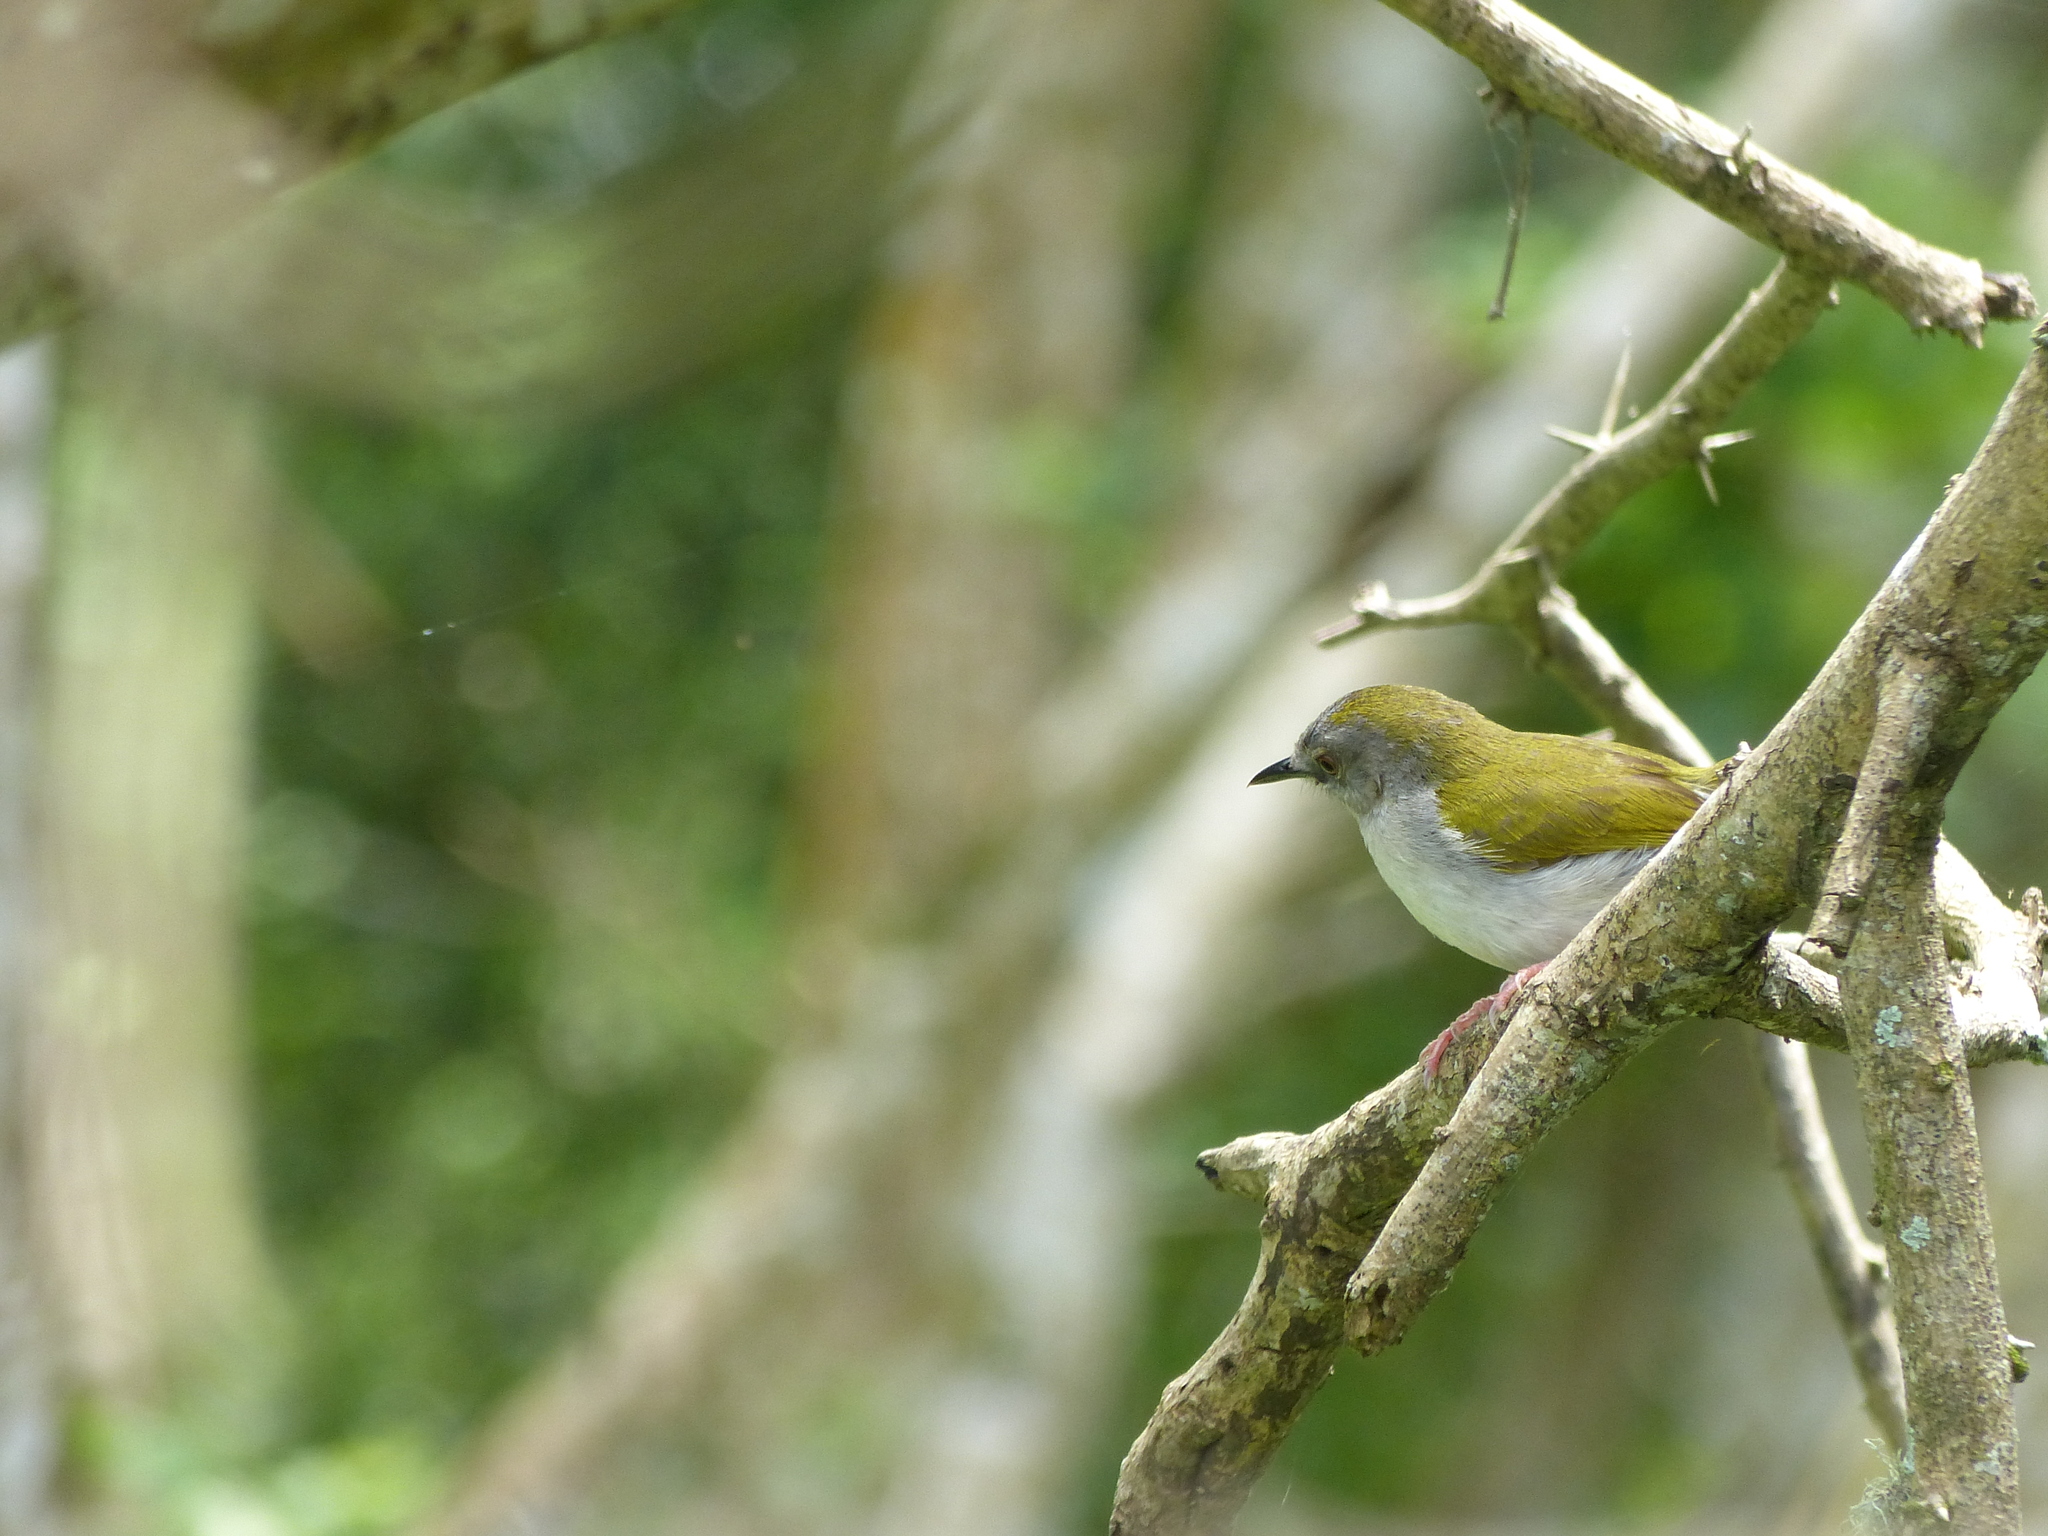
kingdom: Animalia
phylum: Chordata
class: Aves
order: Passeriformes
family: Cisticolidae
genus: Camaroptera
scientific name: Camaroptera brachyura
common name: Green-backed camaroptera
